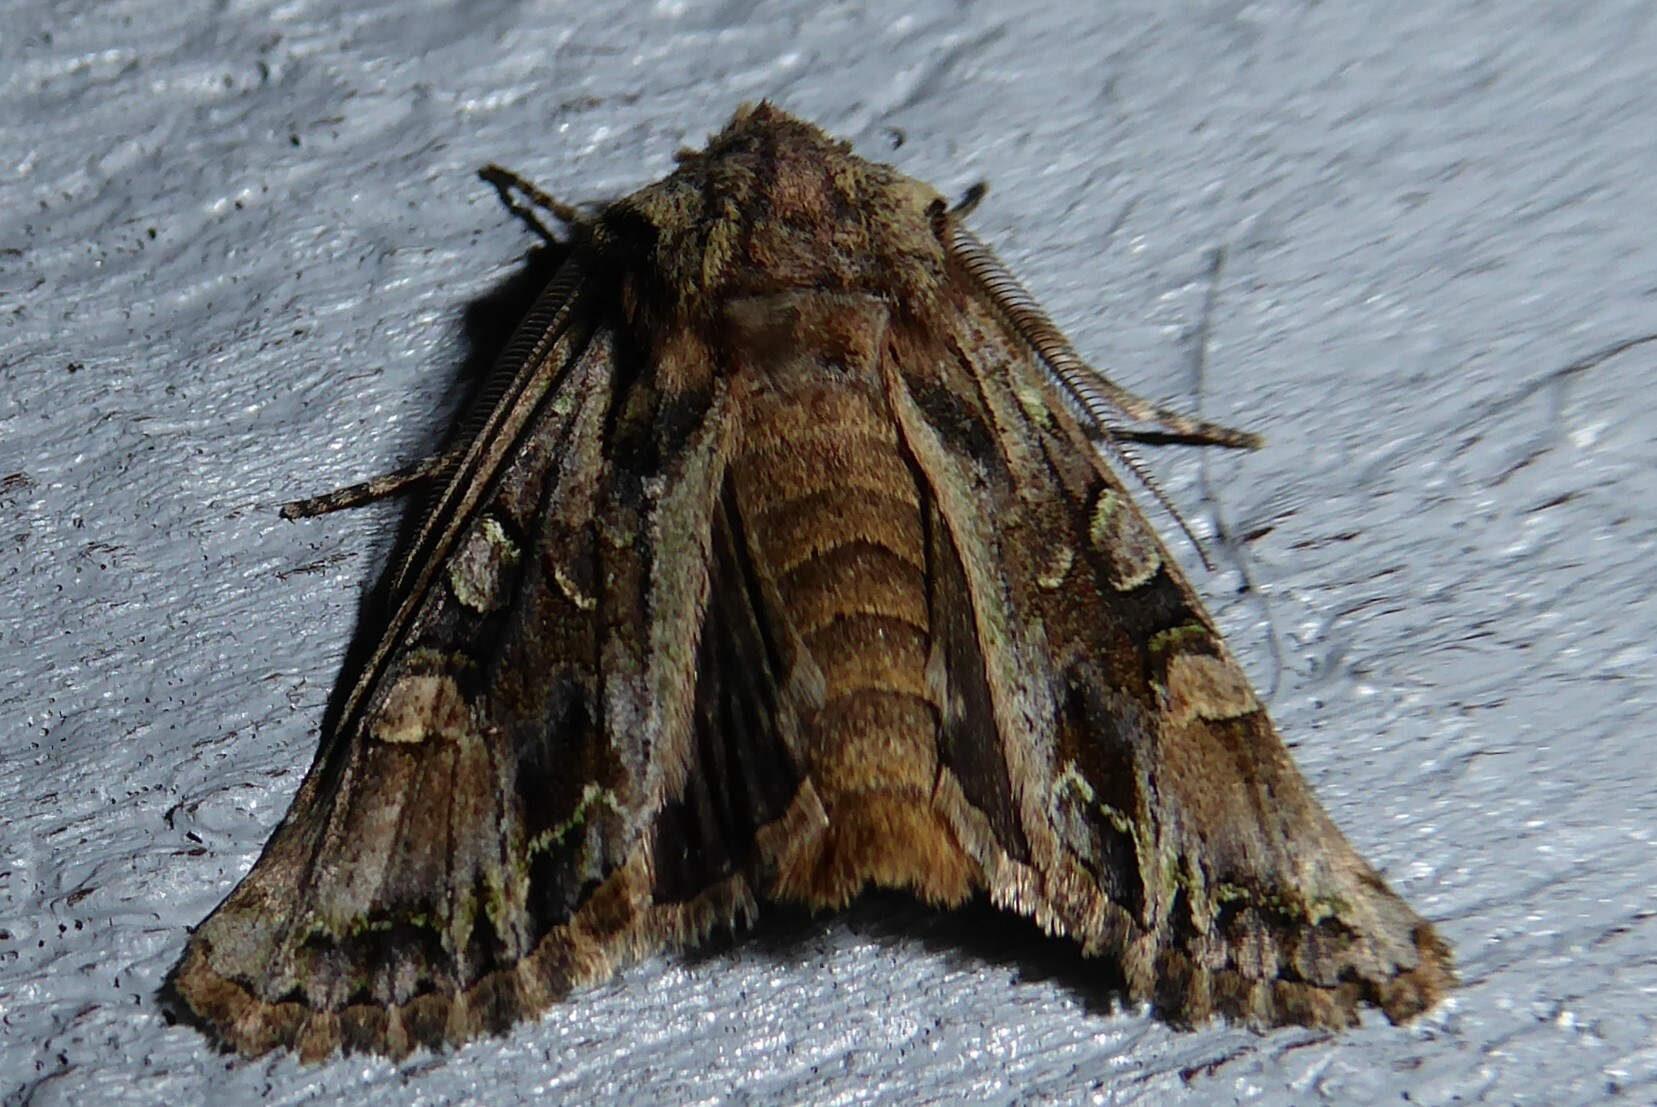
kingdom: Animalia
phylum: Arthropoda
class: Insecta
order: Lepidoptera
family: Noctuidae
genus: Ichneutica
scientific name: Ichneutica skelloni
